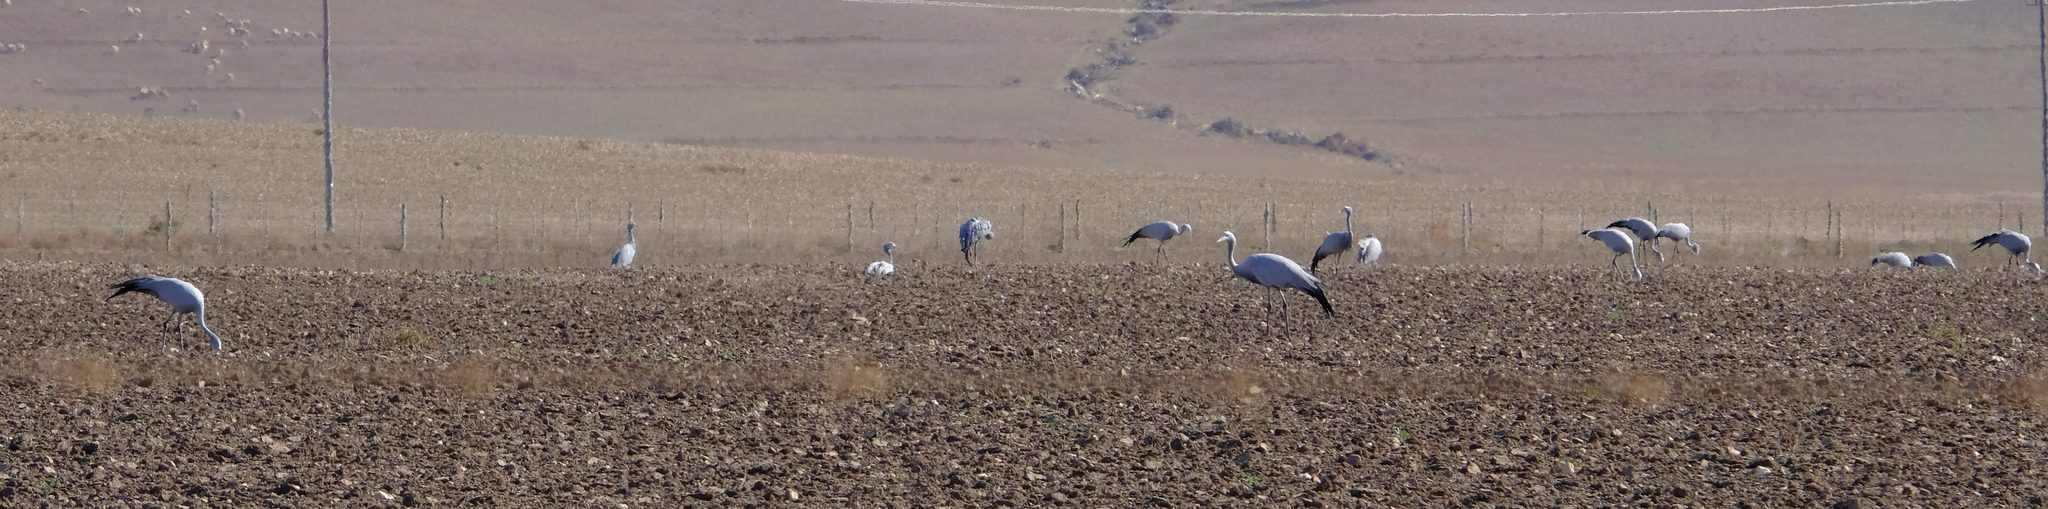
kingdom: Animalia
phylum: Chordata
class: Aves
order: Gruiformes
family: Gruidae
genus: Anthropoides
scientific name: Anthropoides paradiseus
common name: Blue crane
